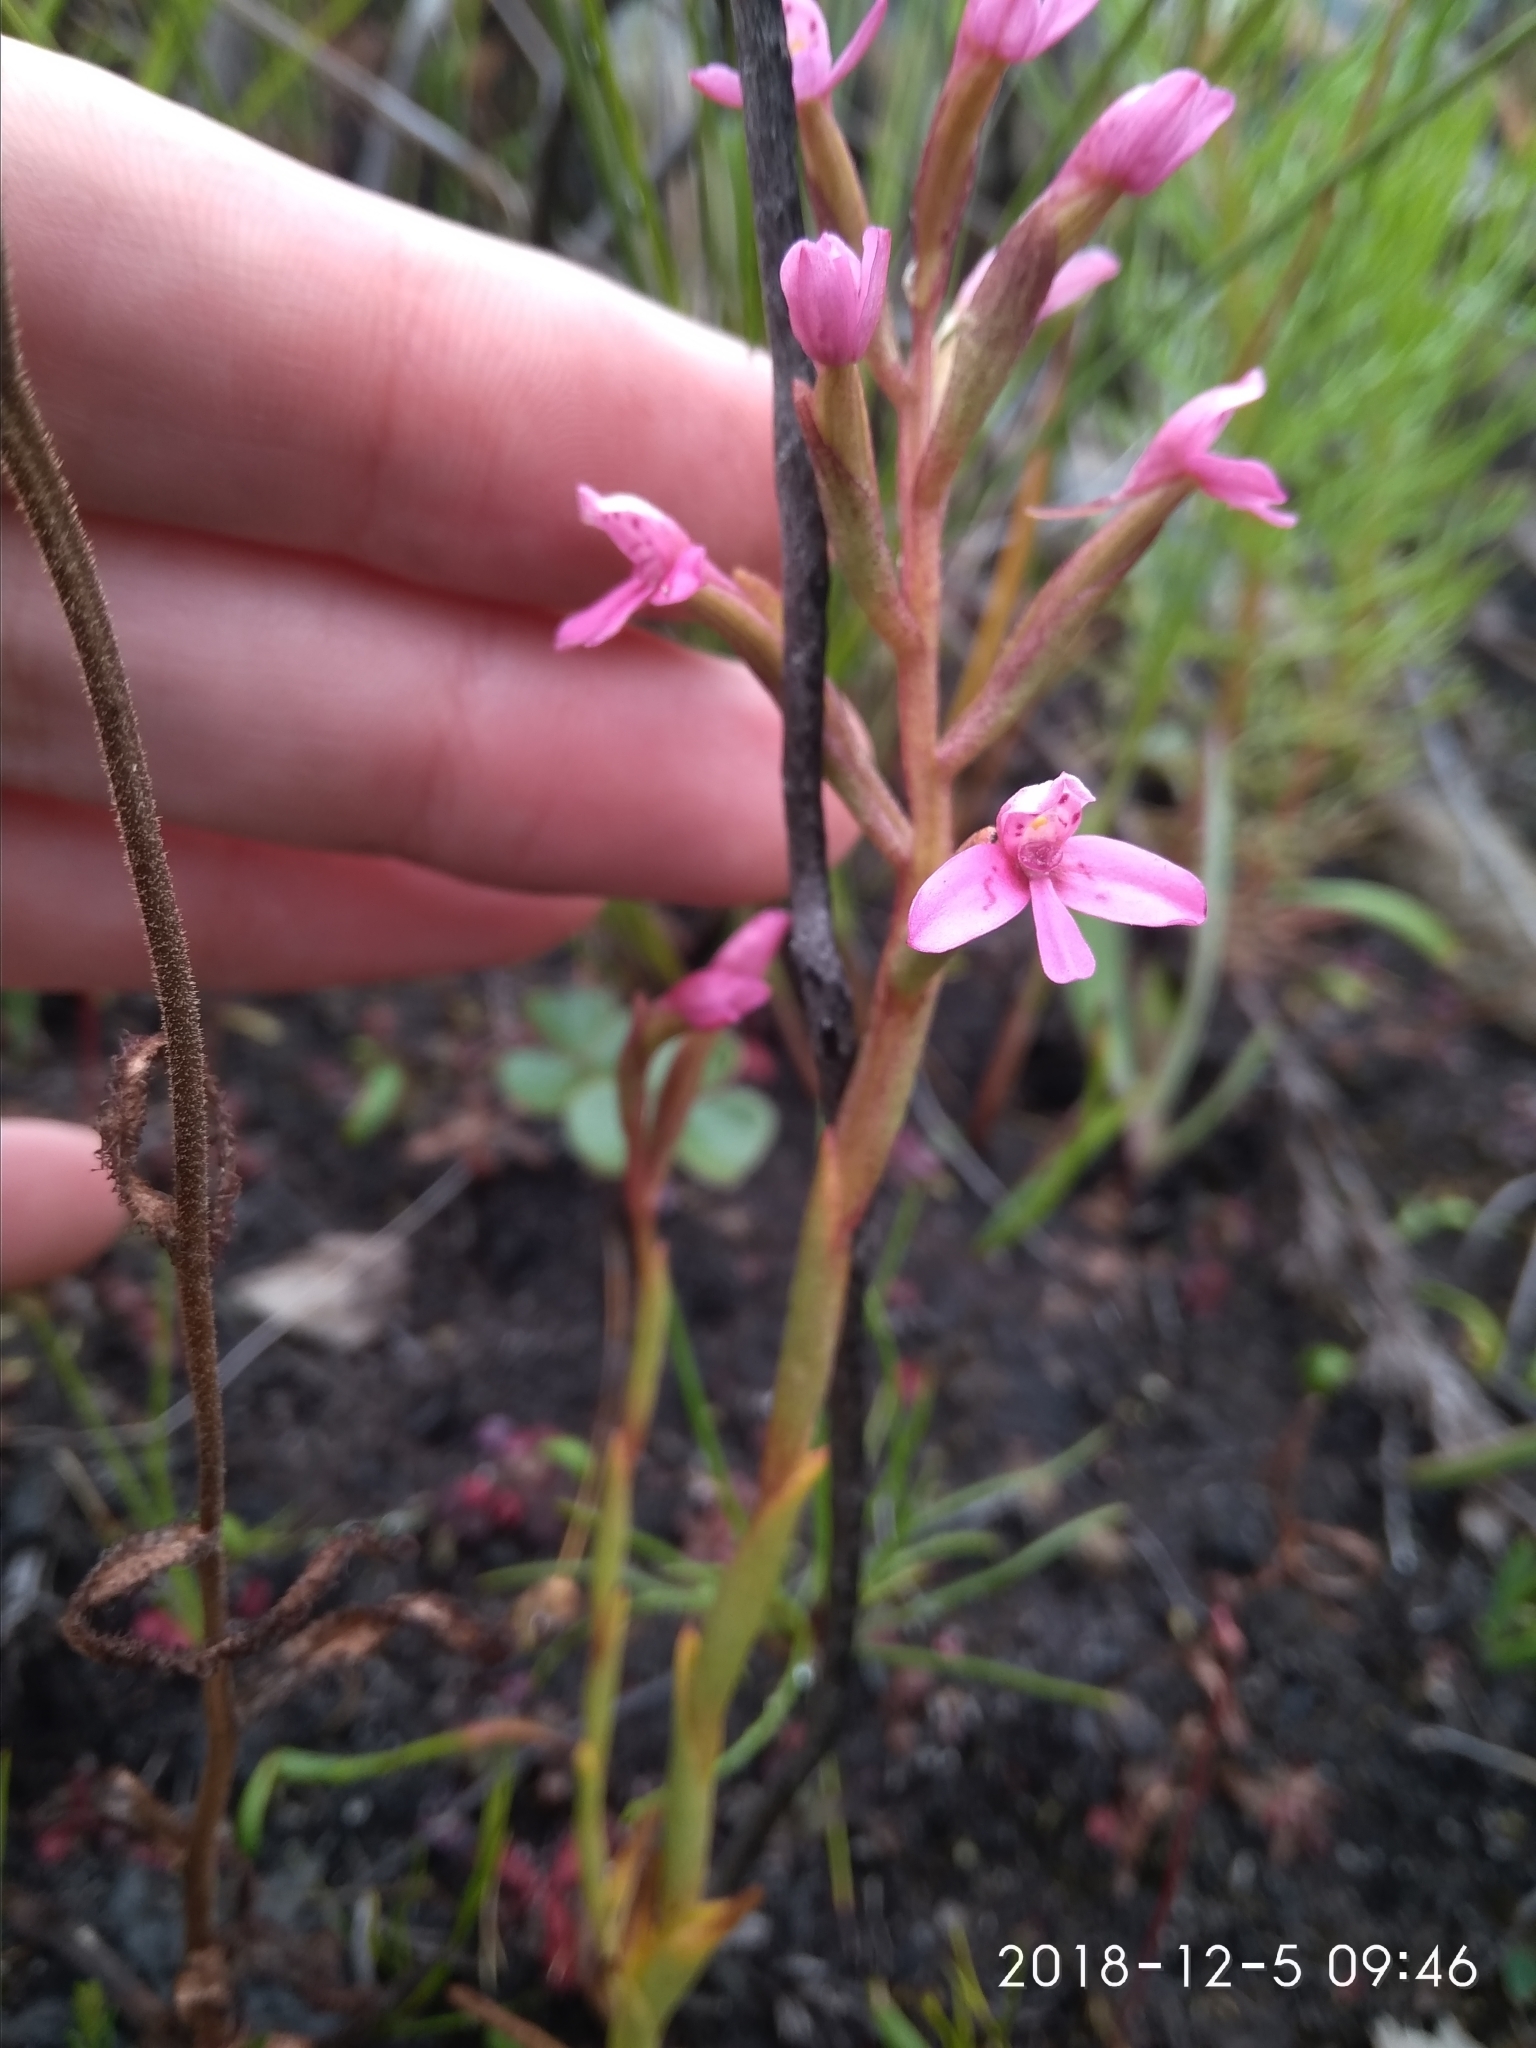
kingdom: Plantae
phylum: Tracheophyta
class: Liliopsida
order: Asparagales
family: Orchidaceae
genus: Disa
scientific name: Disa vaginata
